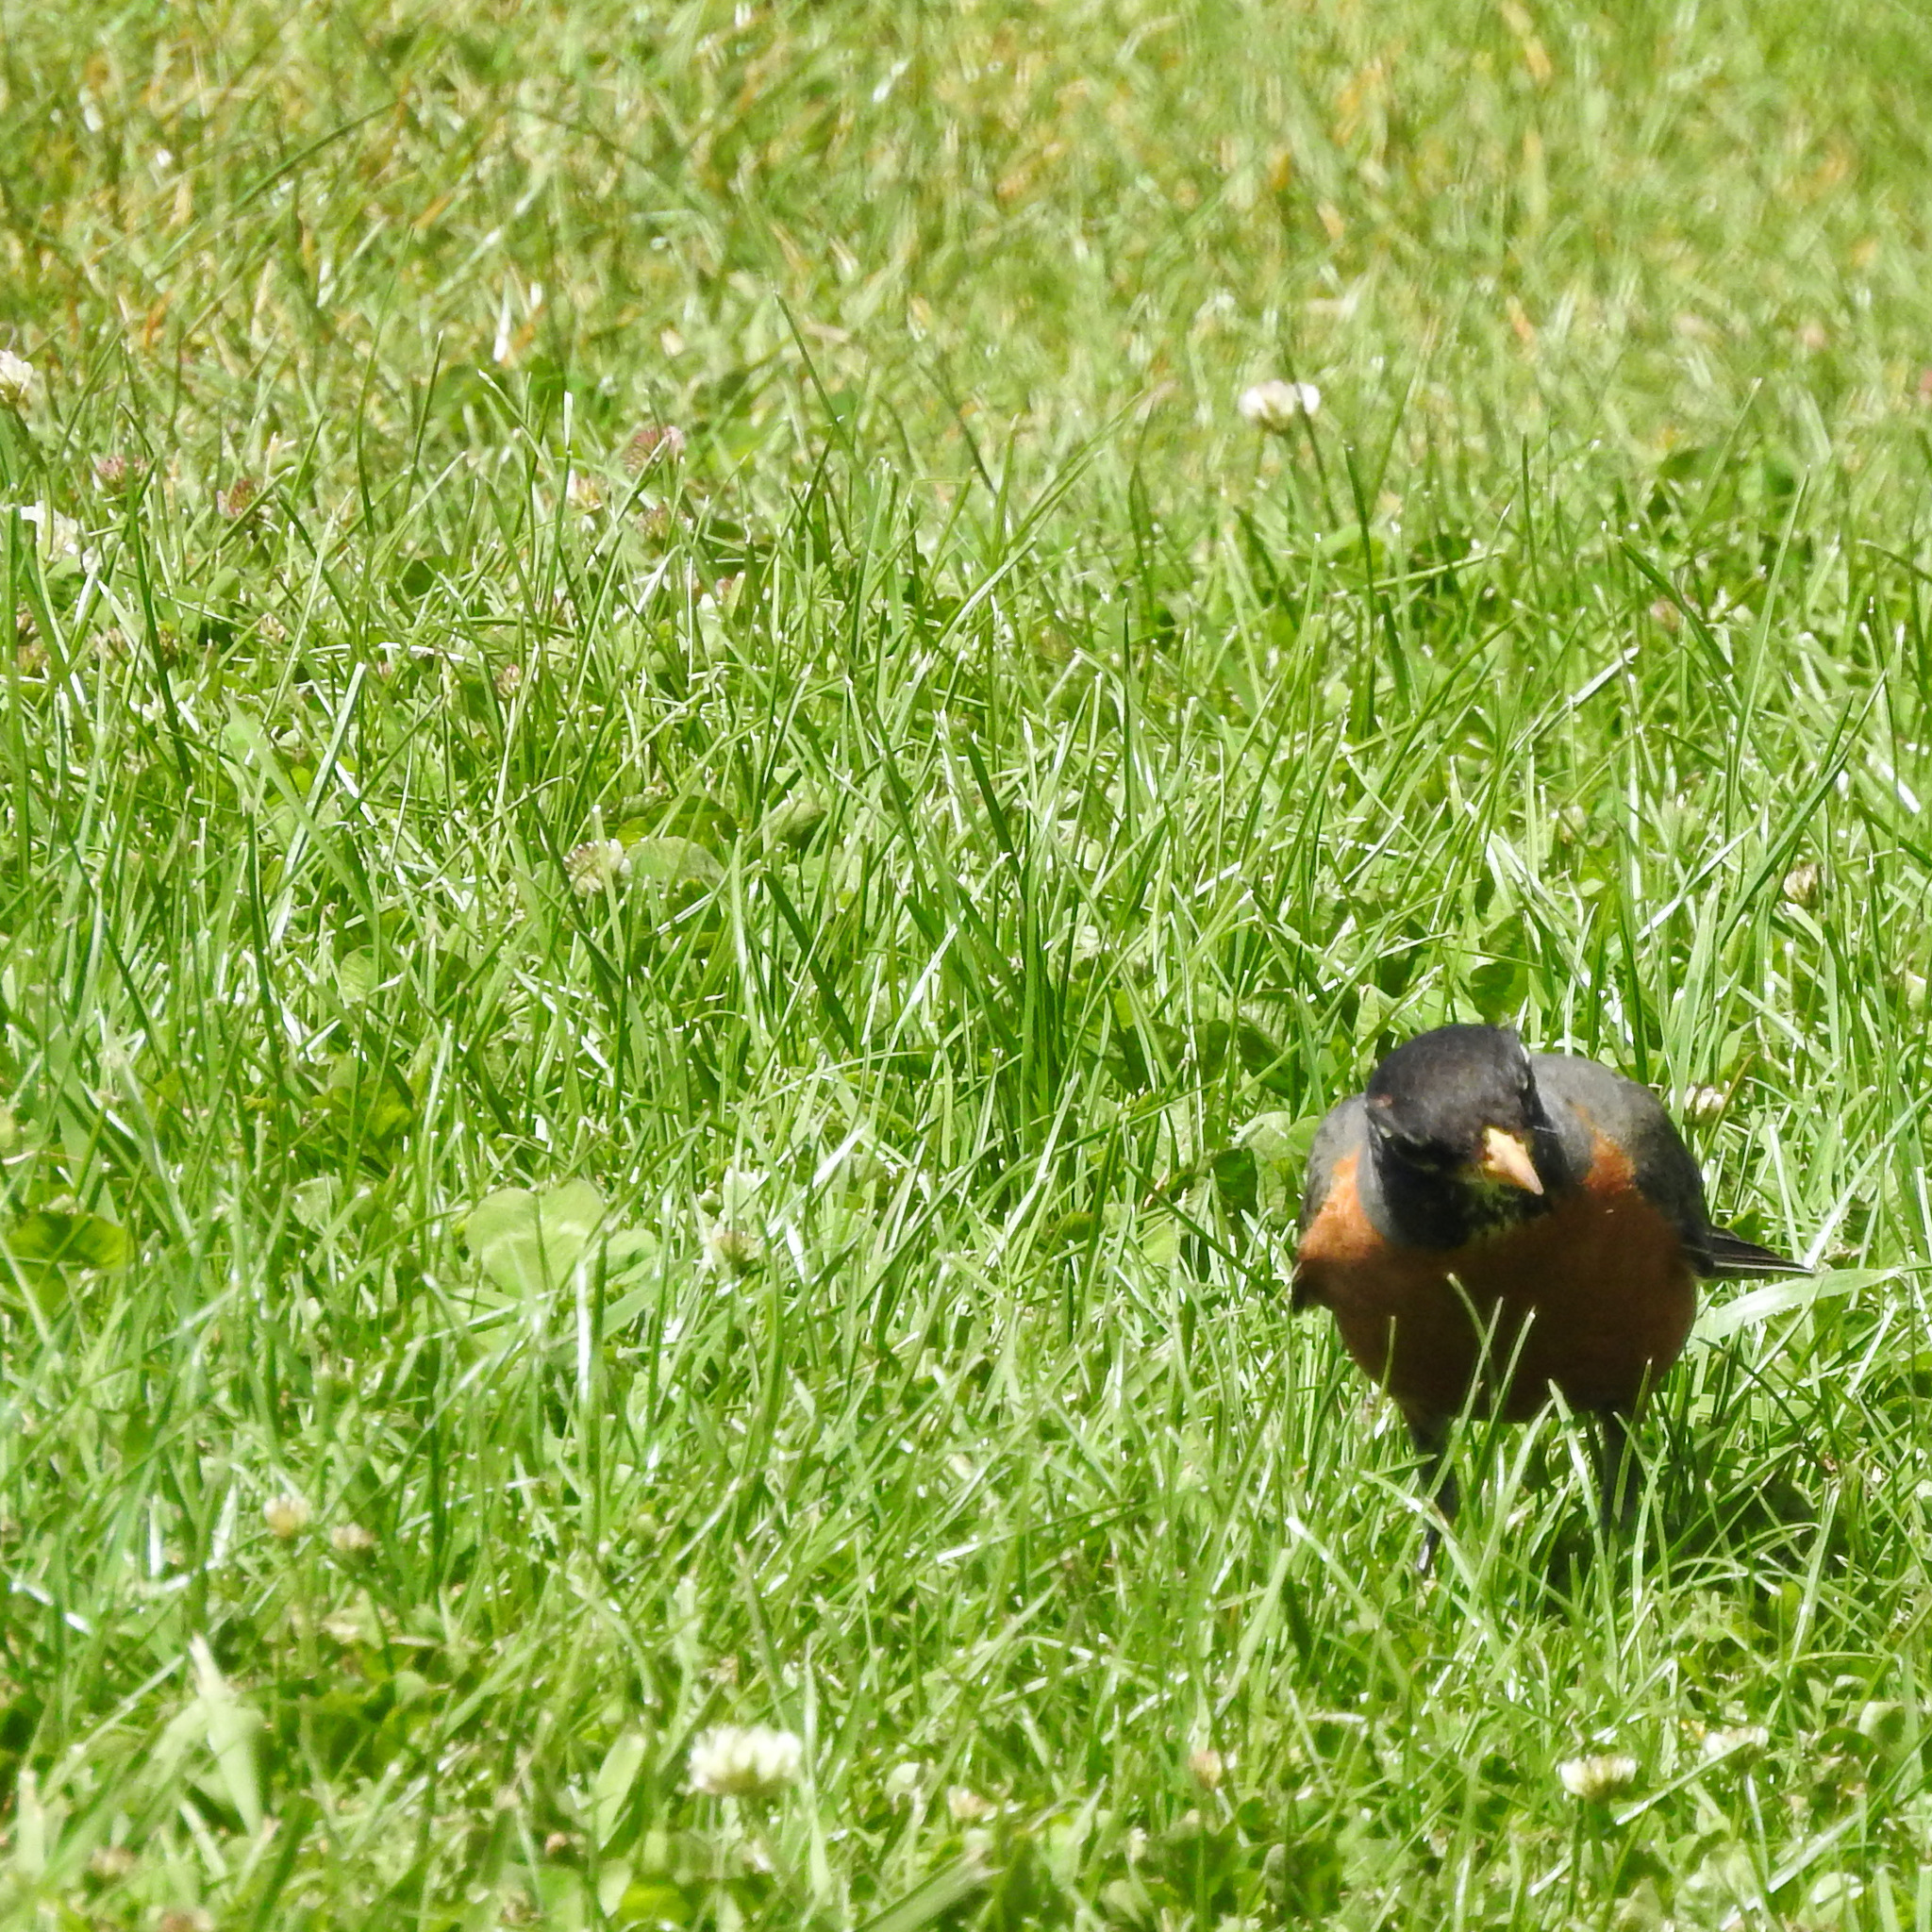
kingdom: Animalia
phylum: Chordata
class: Aves
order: Passeriformes
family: Turdidae
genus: Turdus
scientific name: Turdus migratorius
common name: American robin
